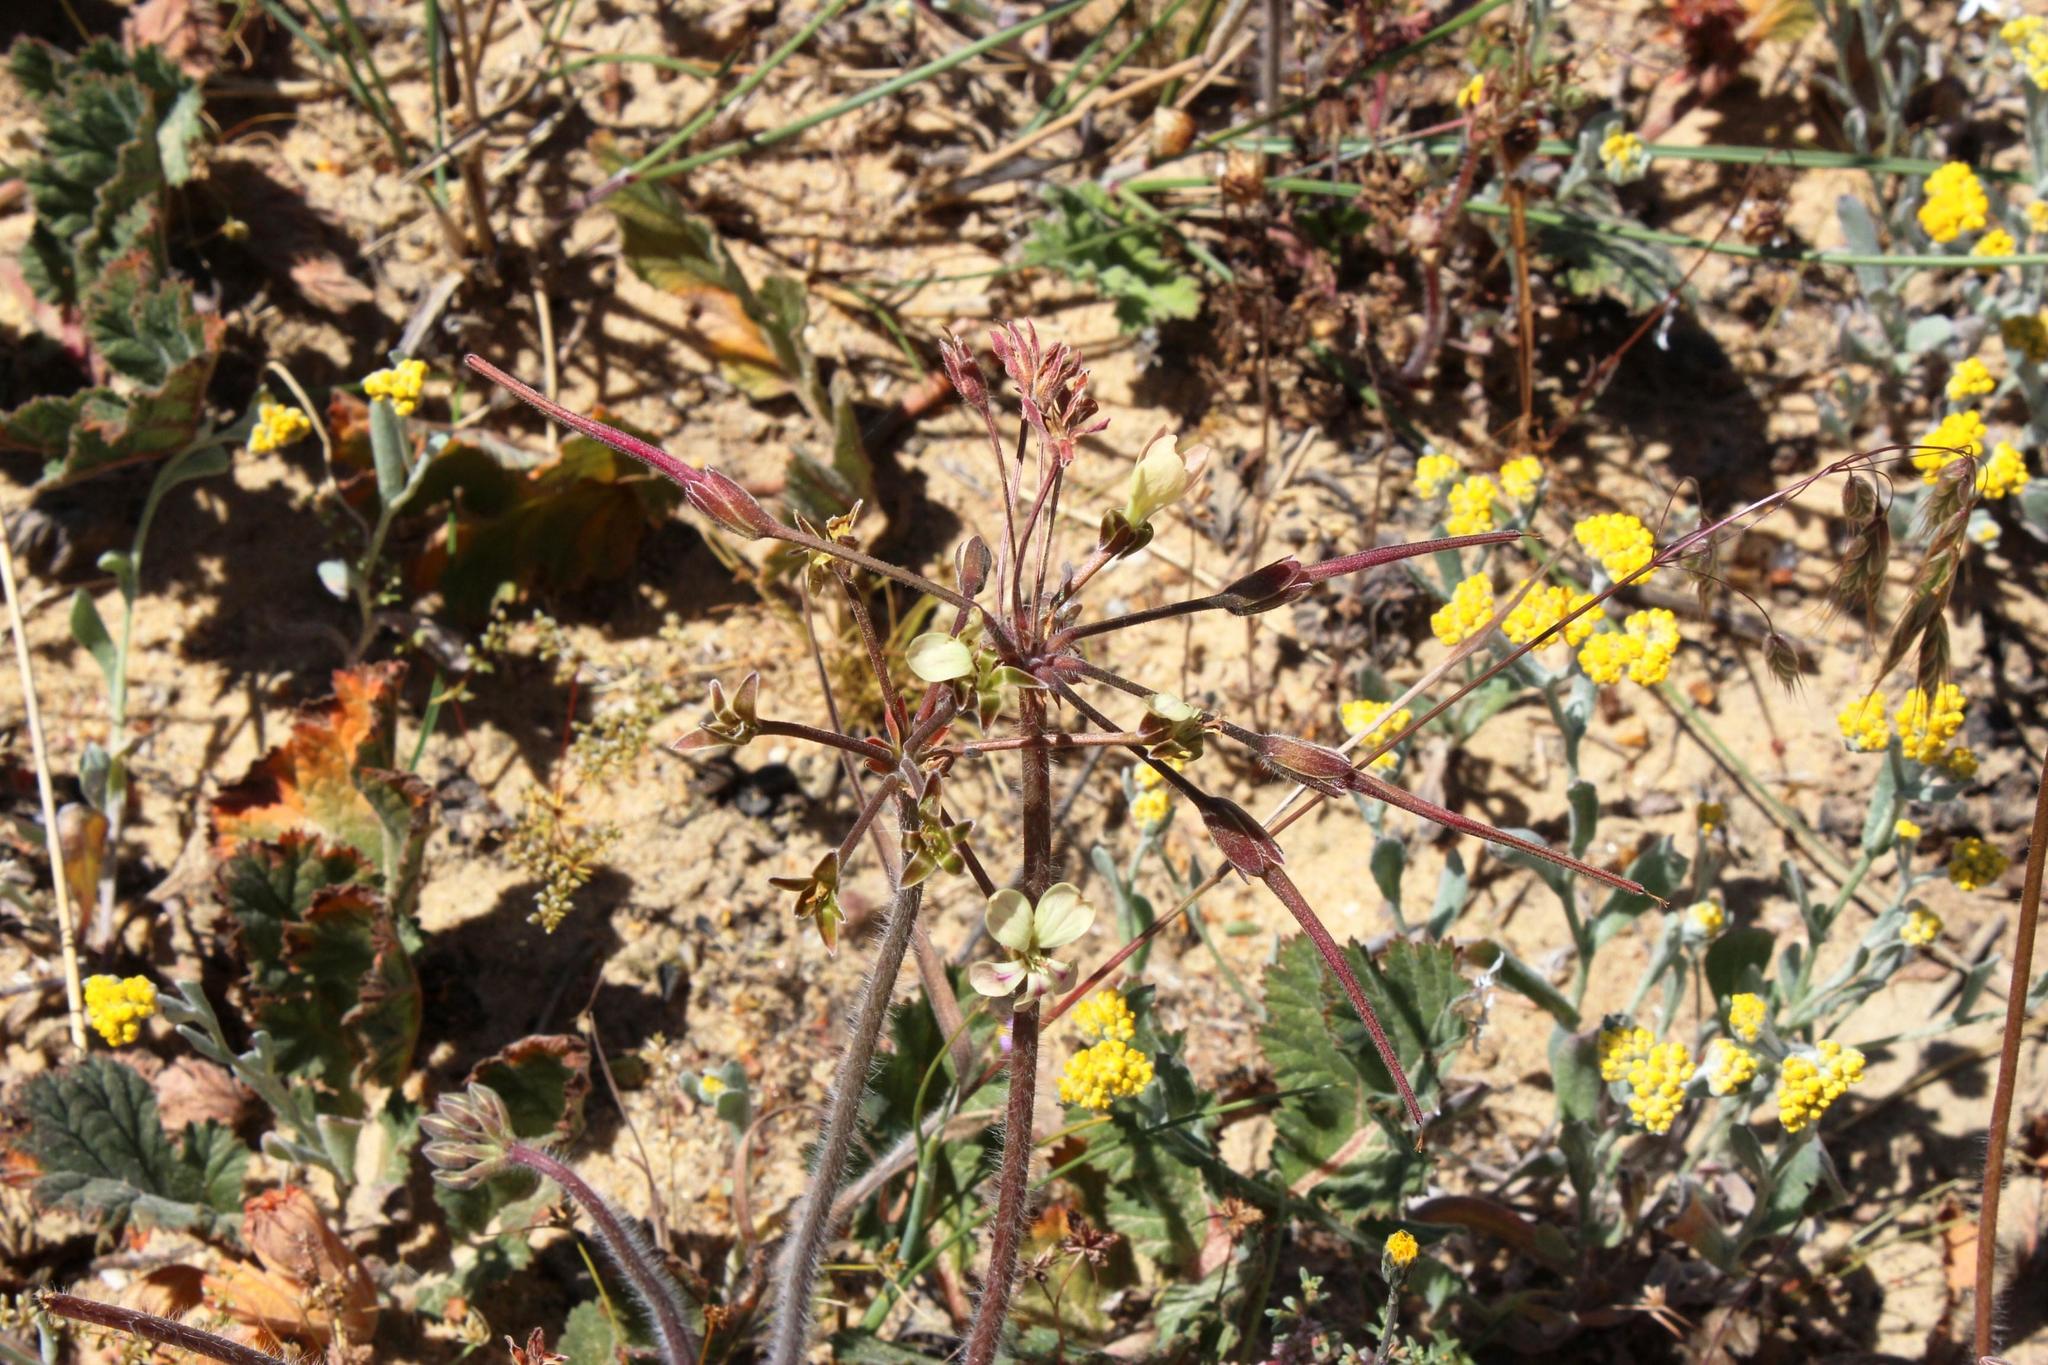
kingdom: Plantae
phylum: Tracheophyta
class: Magnoliopsida
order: Geraniales
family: Geraniaceae
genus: Pelargonium
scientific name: Pelargonium radulifolium
